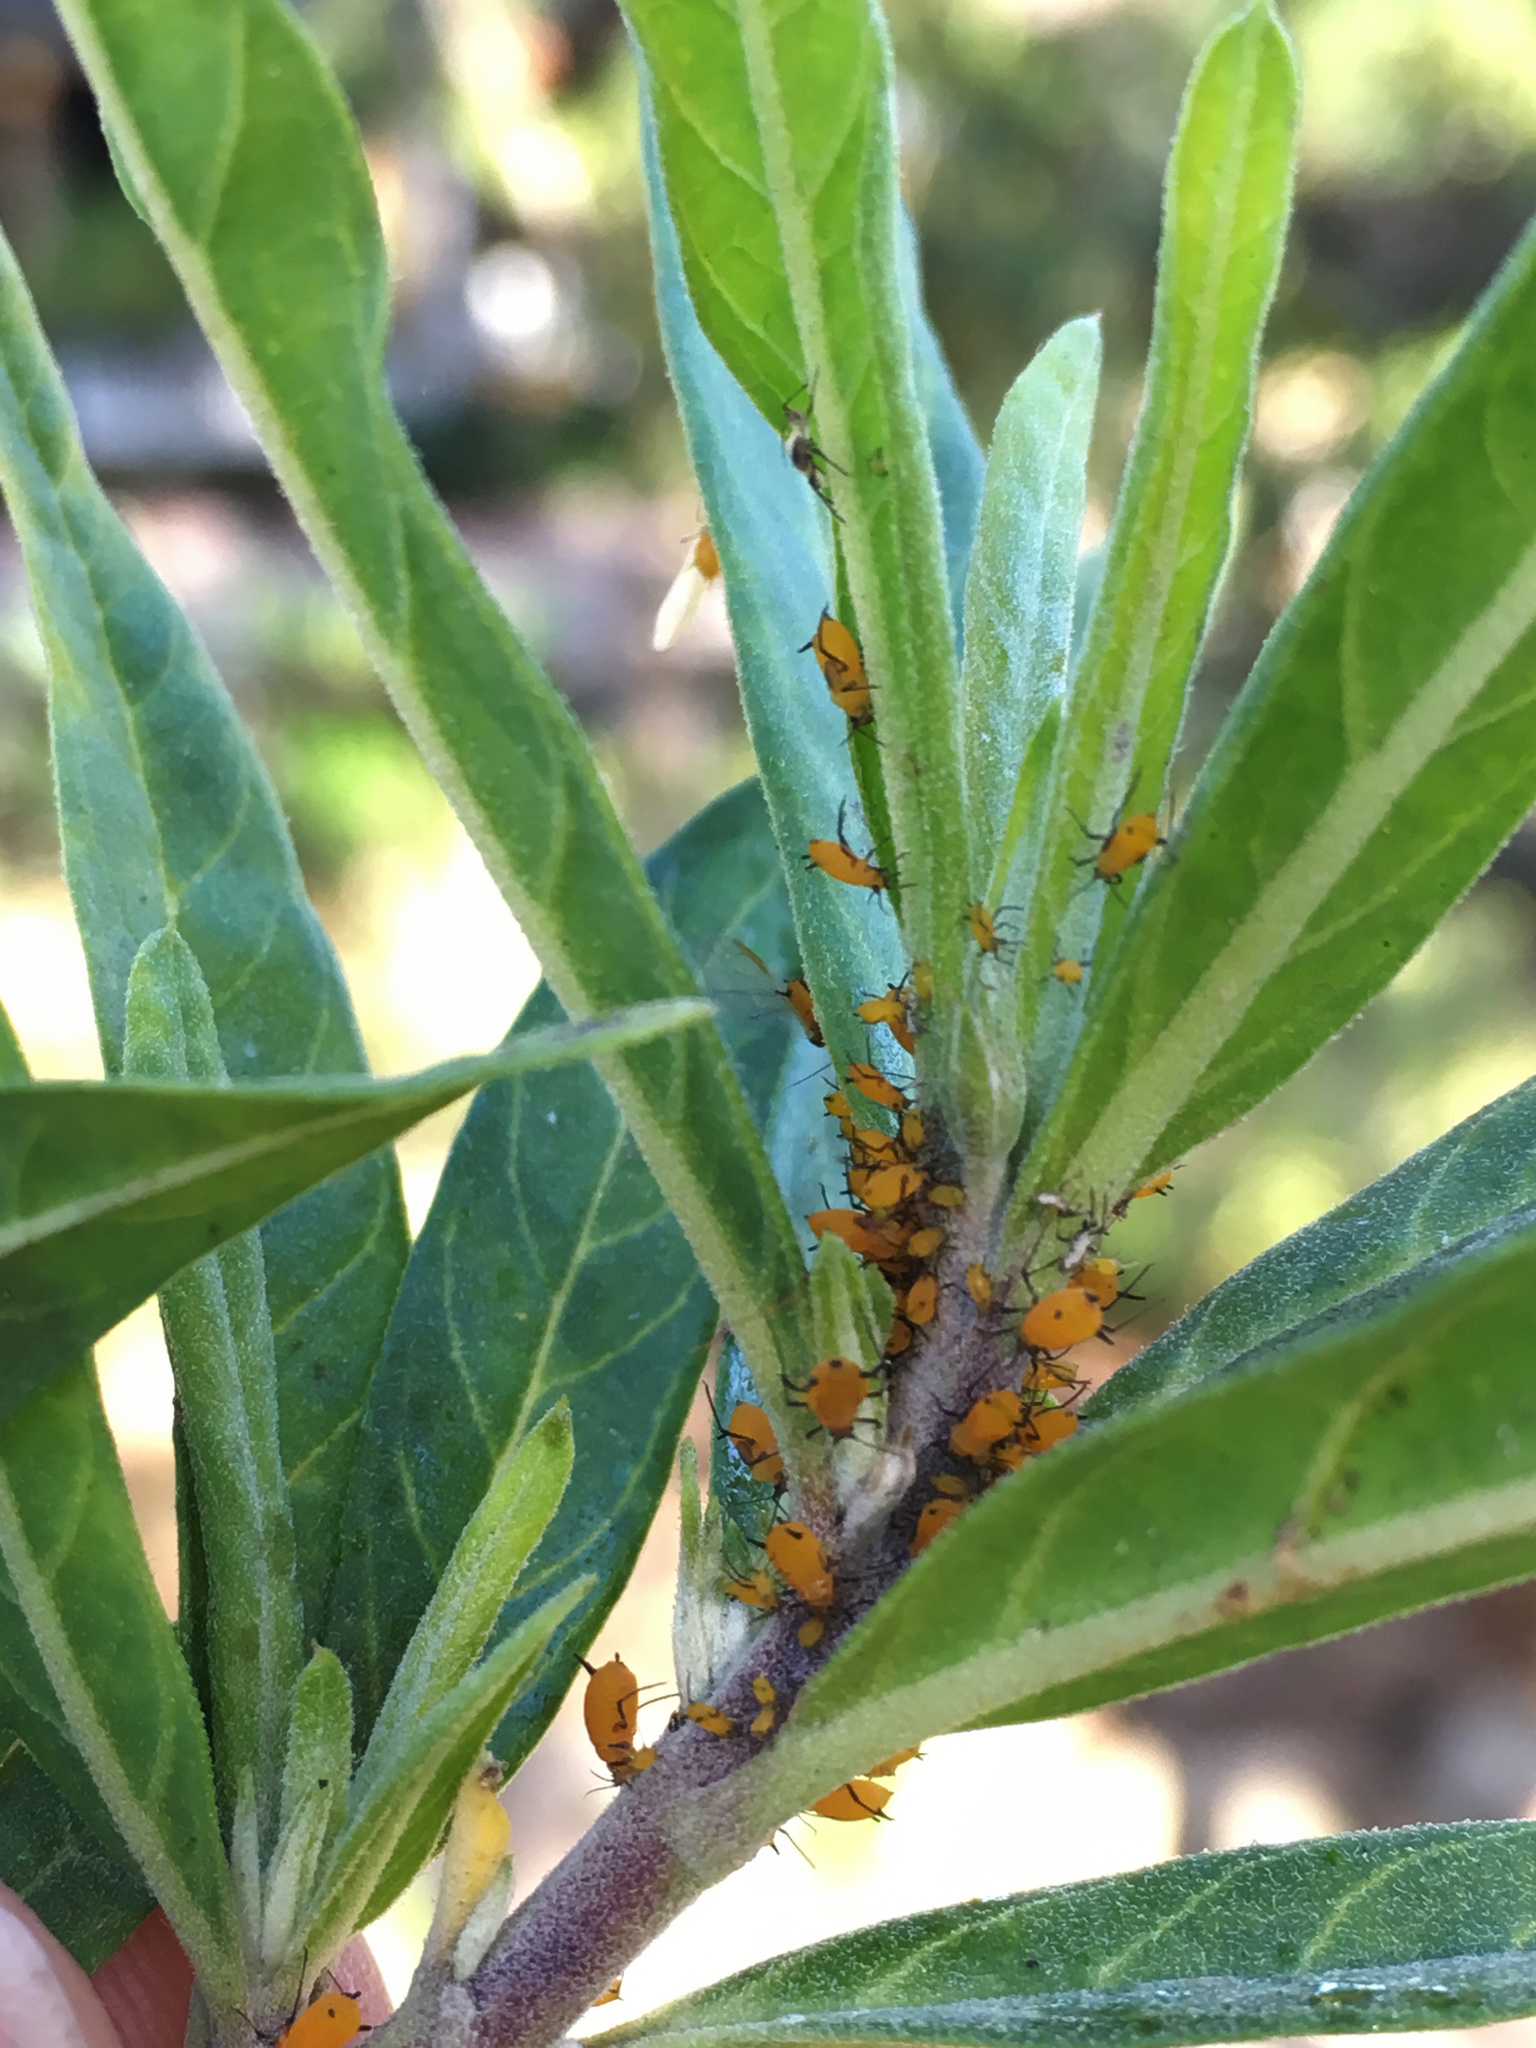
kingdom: Animalia
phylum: Arthropoda
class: Insecta
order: Hemiptera
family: Aphididae
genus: Aphis
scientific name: Aphis nerii
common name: Oleander aphid
